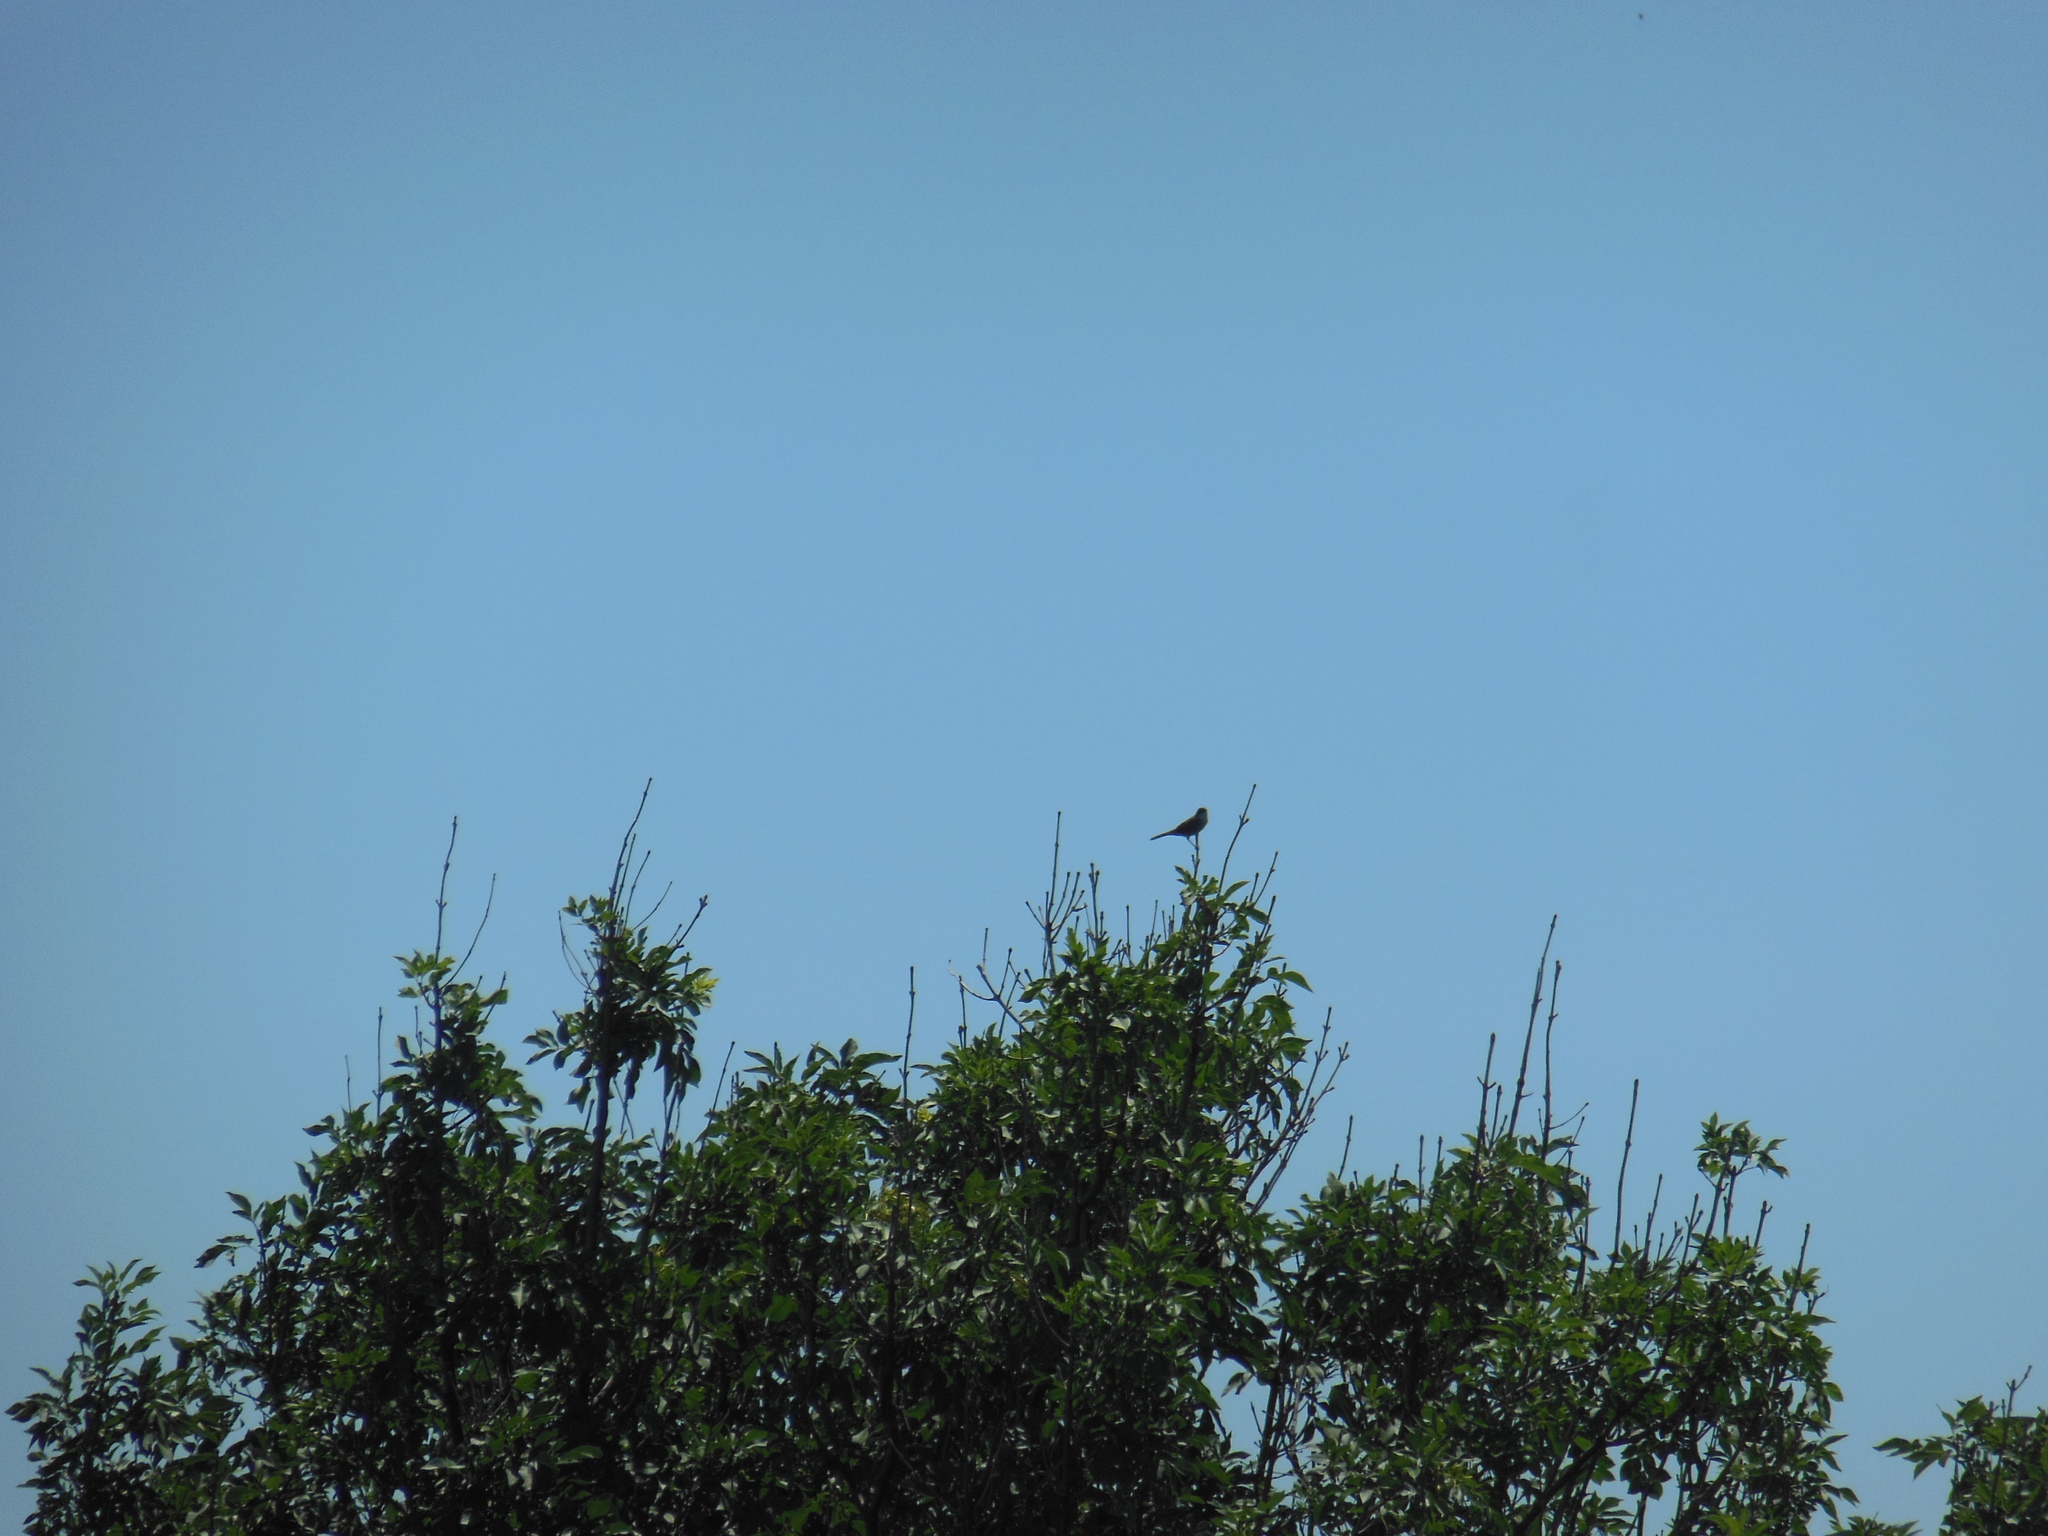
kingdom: Animalia
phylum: Chordata
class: Aves
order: Passeriformes
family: Sylviidae
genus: Curruca
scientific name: Curruca melanocephala
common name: Sardinian warbler
